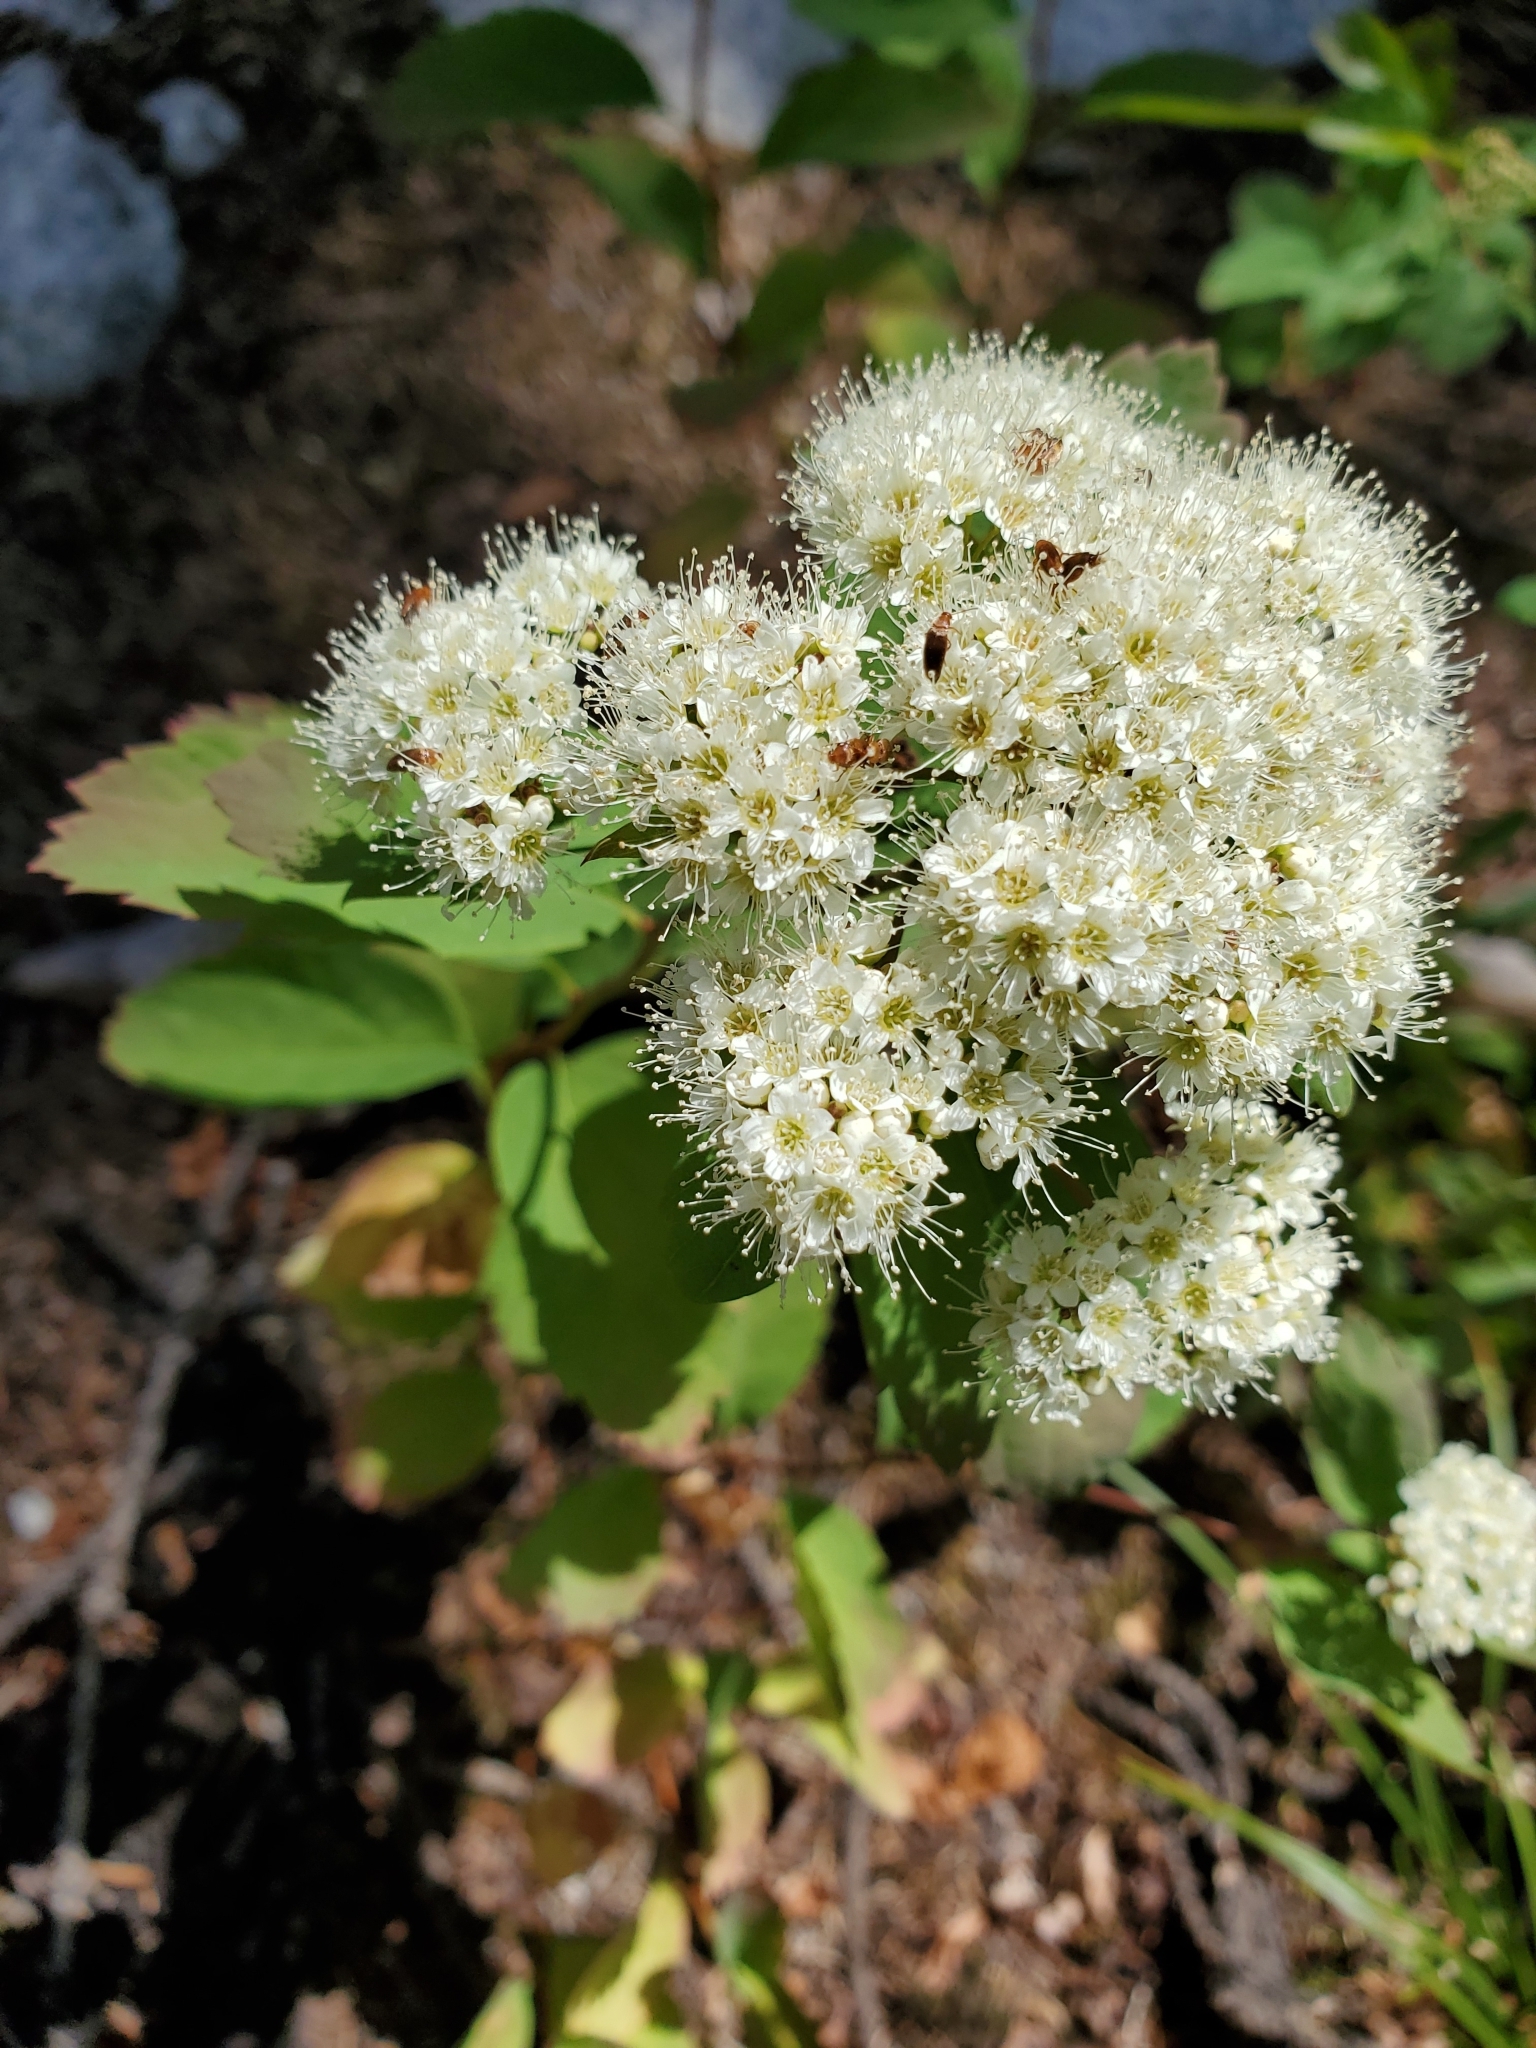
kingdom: Plantae
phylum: Tracheophyta
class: Magnoliopsida
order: Rosales
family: Rosaceae
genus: Spiraea
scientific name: Spiraea lucida
